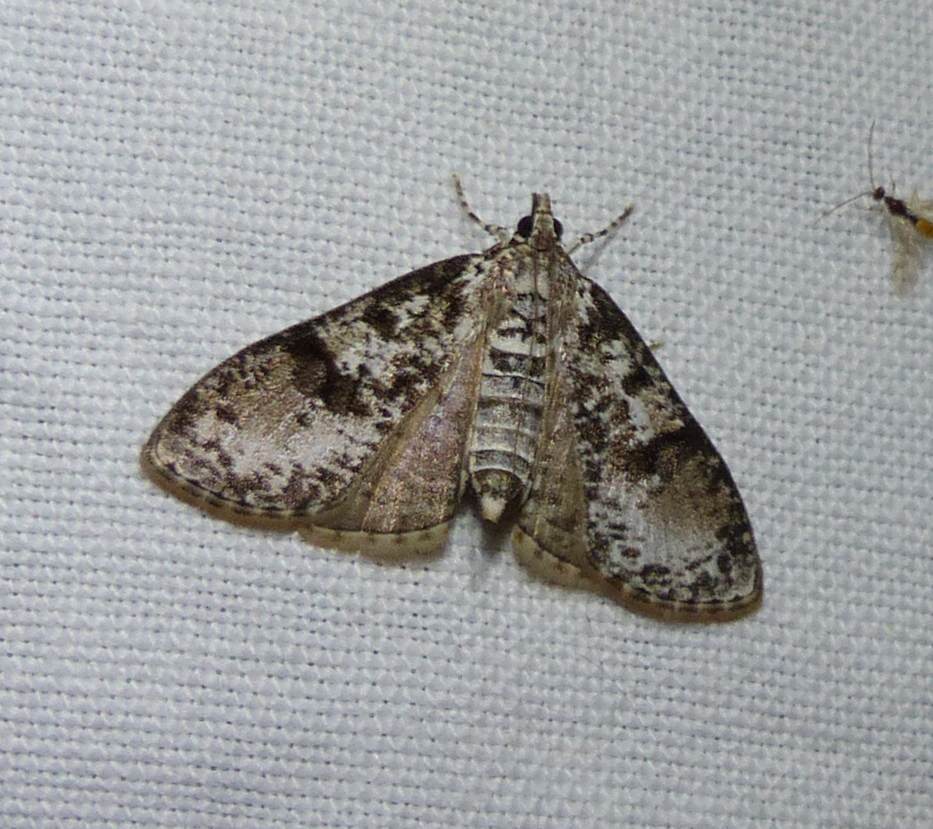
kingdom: Animalia
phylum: Arthropoda
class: Insecta
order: Lepidoptera
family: Crambidae
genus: Palpita
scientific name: Palpita magniferalis
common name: Splendid palpita moth
